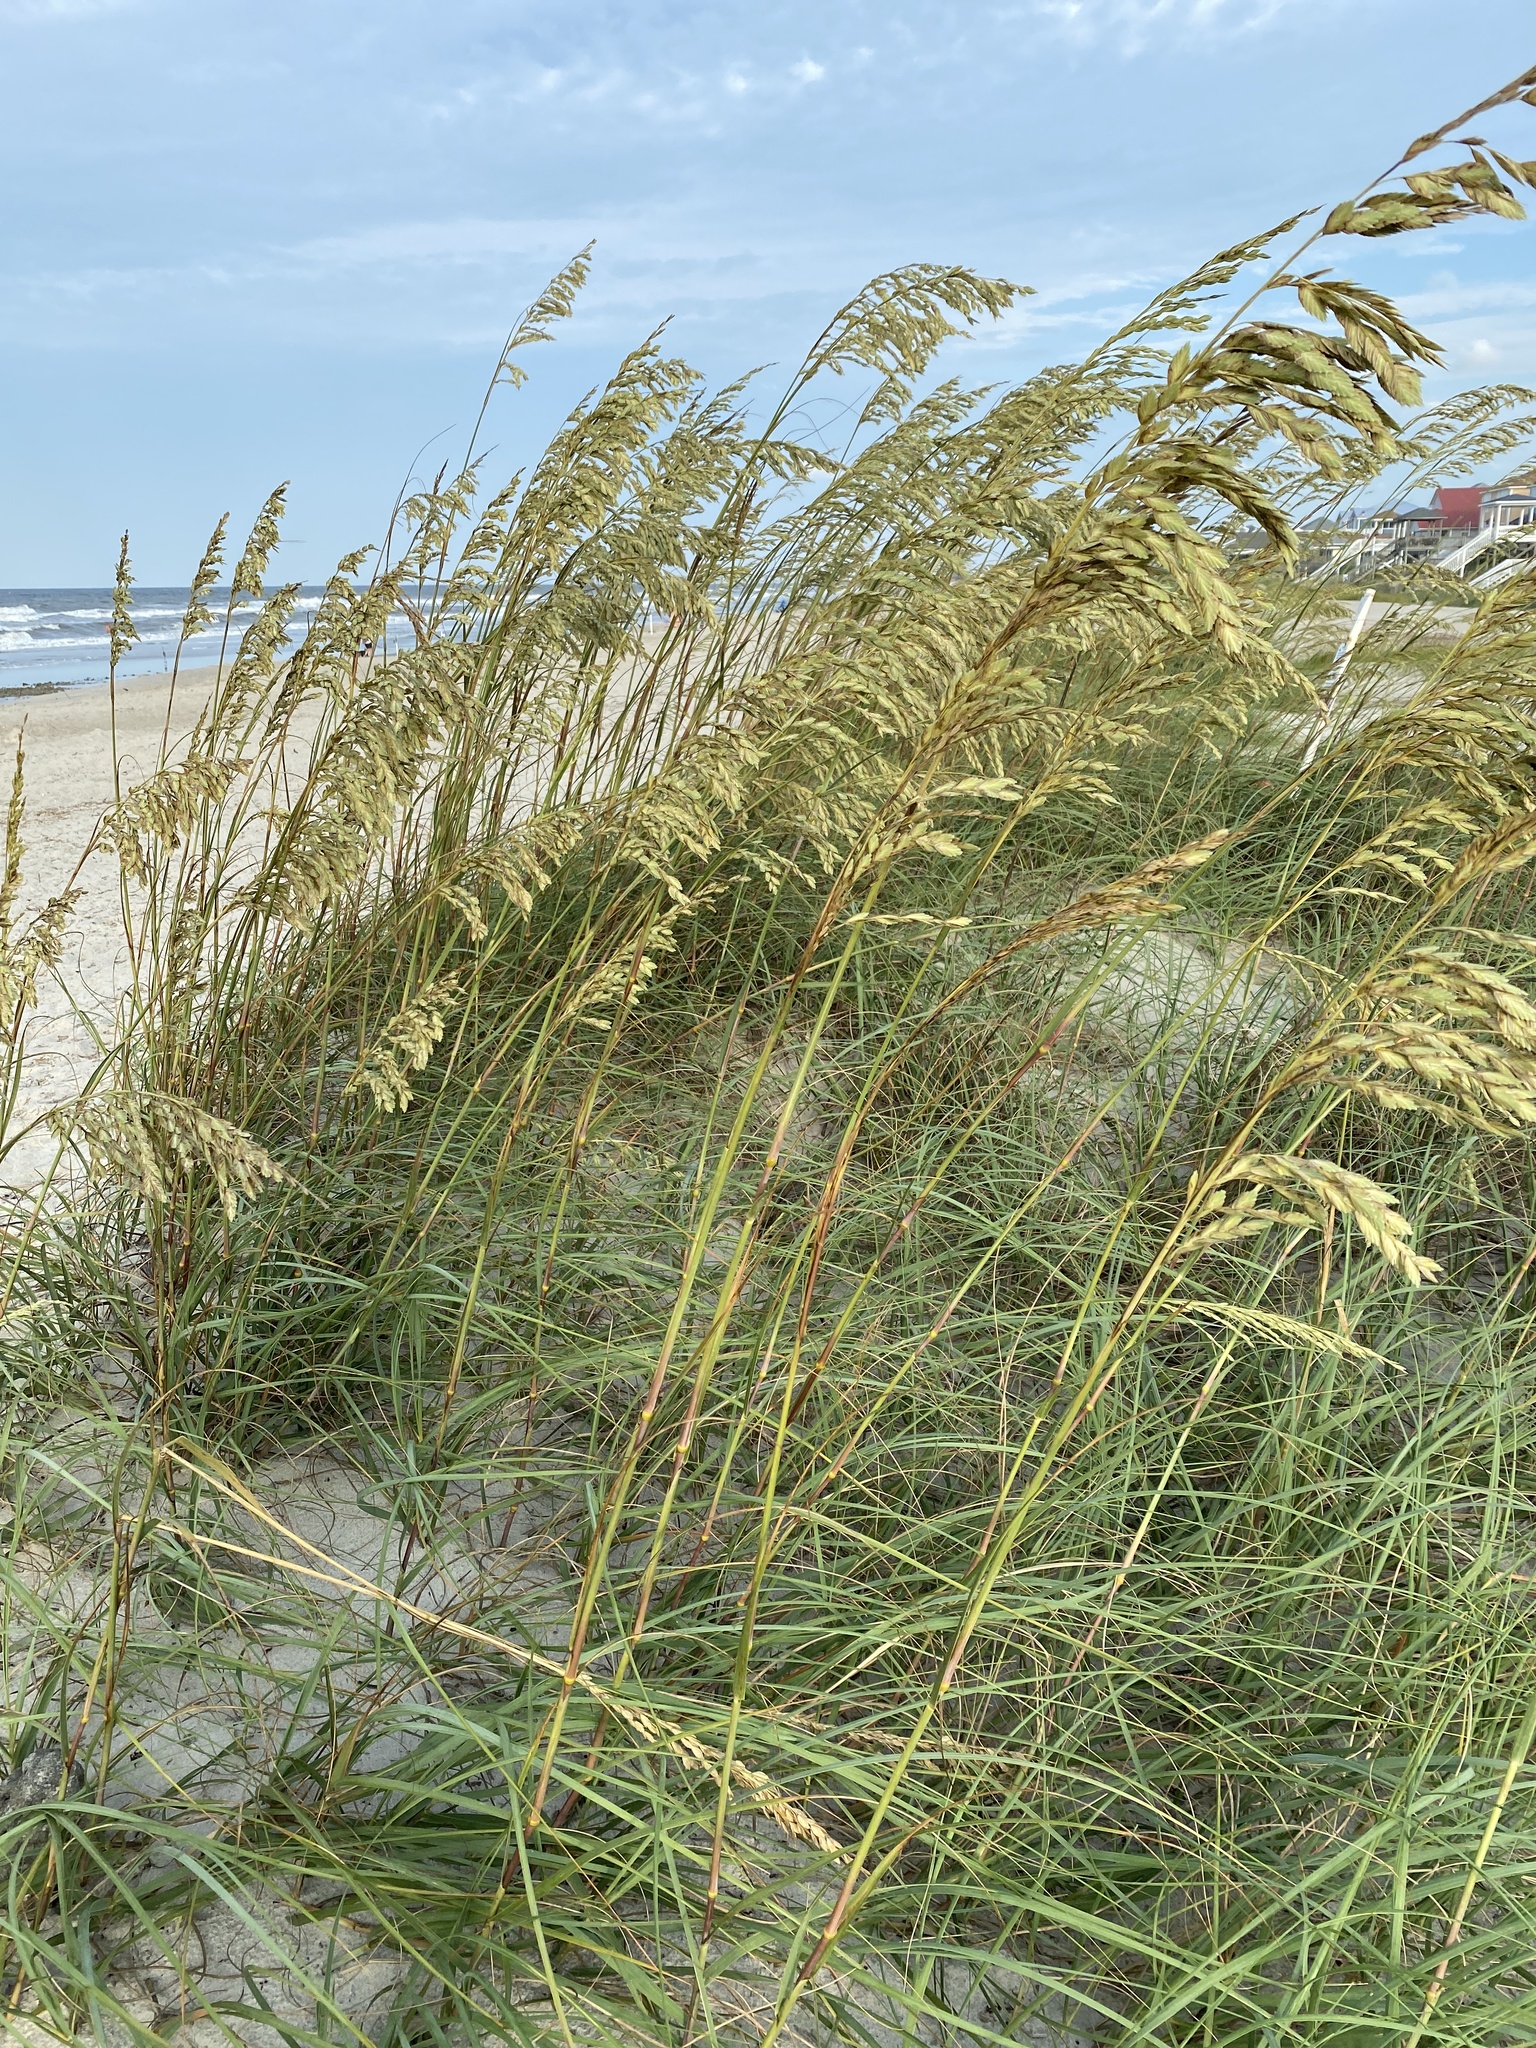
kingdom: Plantae
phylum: Tracheophyta
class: Liliopsida
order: Poales
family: Poaceae
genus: Uniola
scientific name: Uniola paniculata
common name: Seaside-oats
